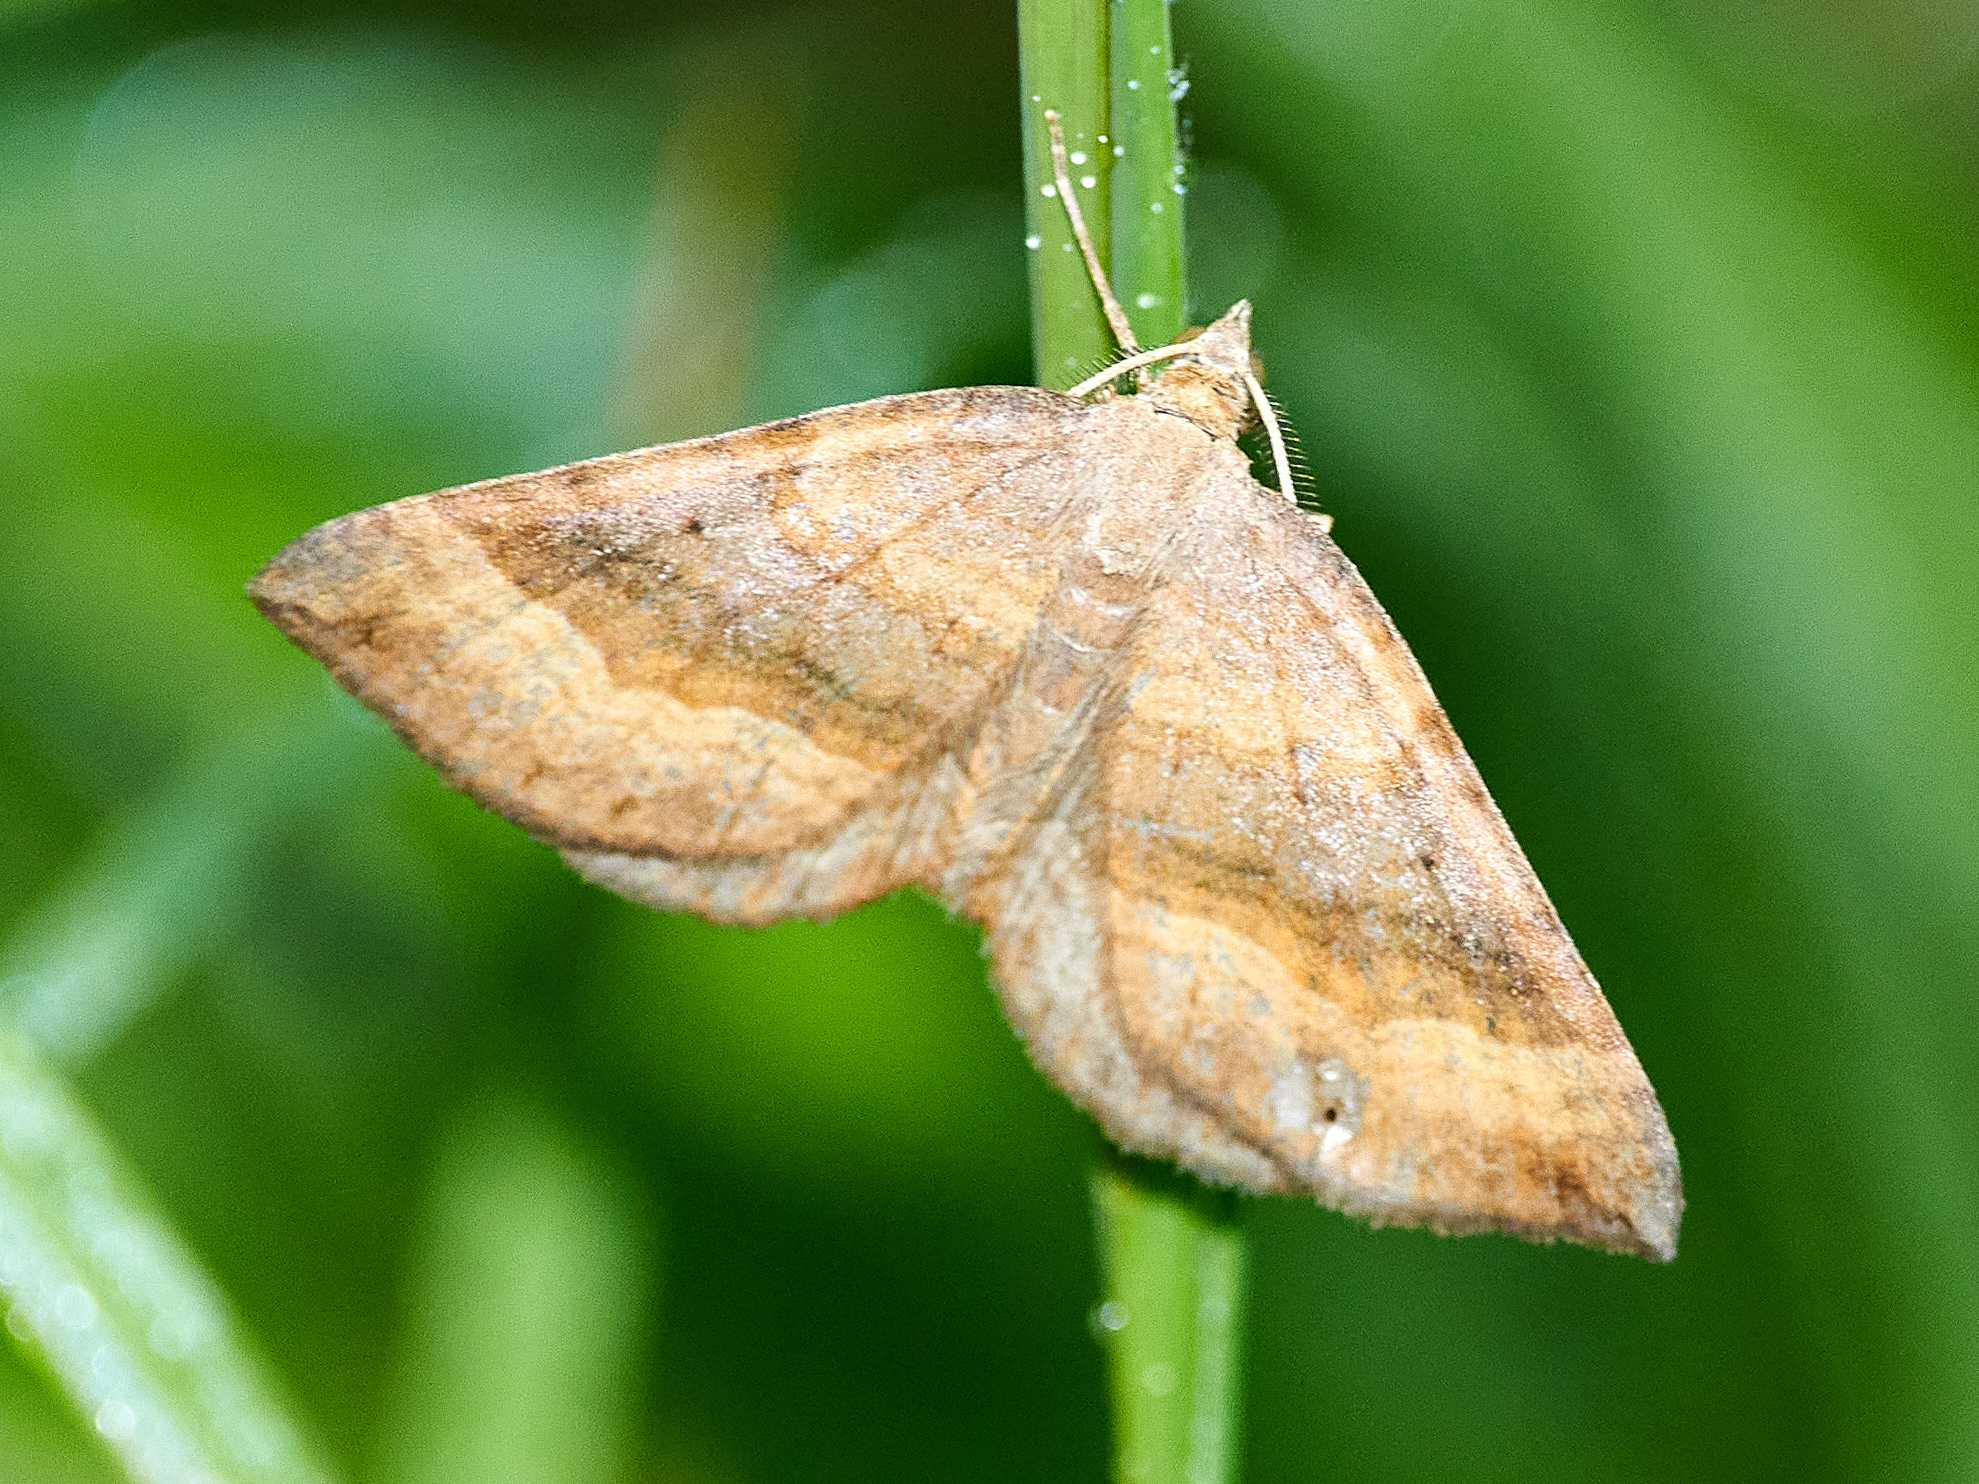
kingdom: Animalia
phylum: Arthropoda
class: Insecta
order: Lepidoptera
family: Geometridae
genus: Scotopteryx
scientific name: Scotopteryx chenopodiata
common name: Shaded broad-bar
